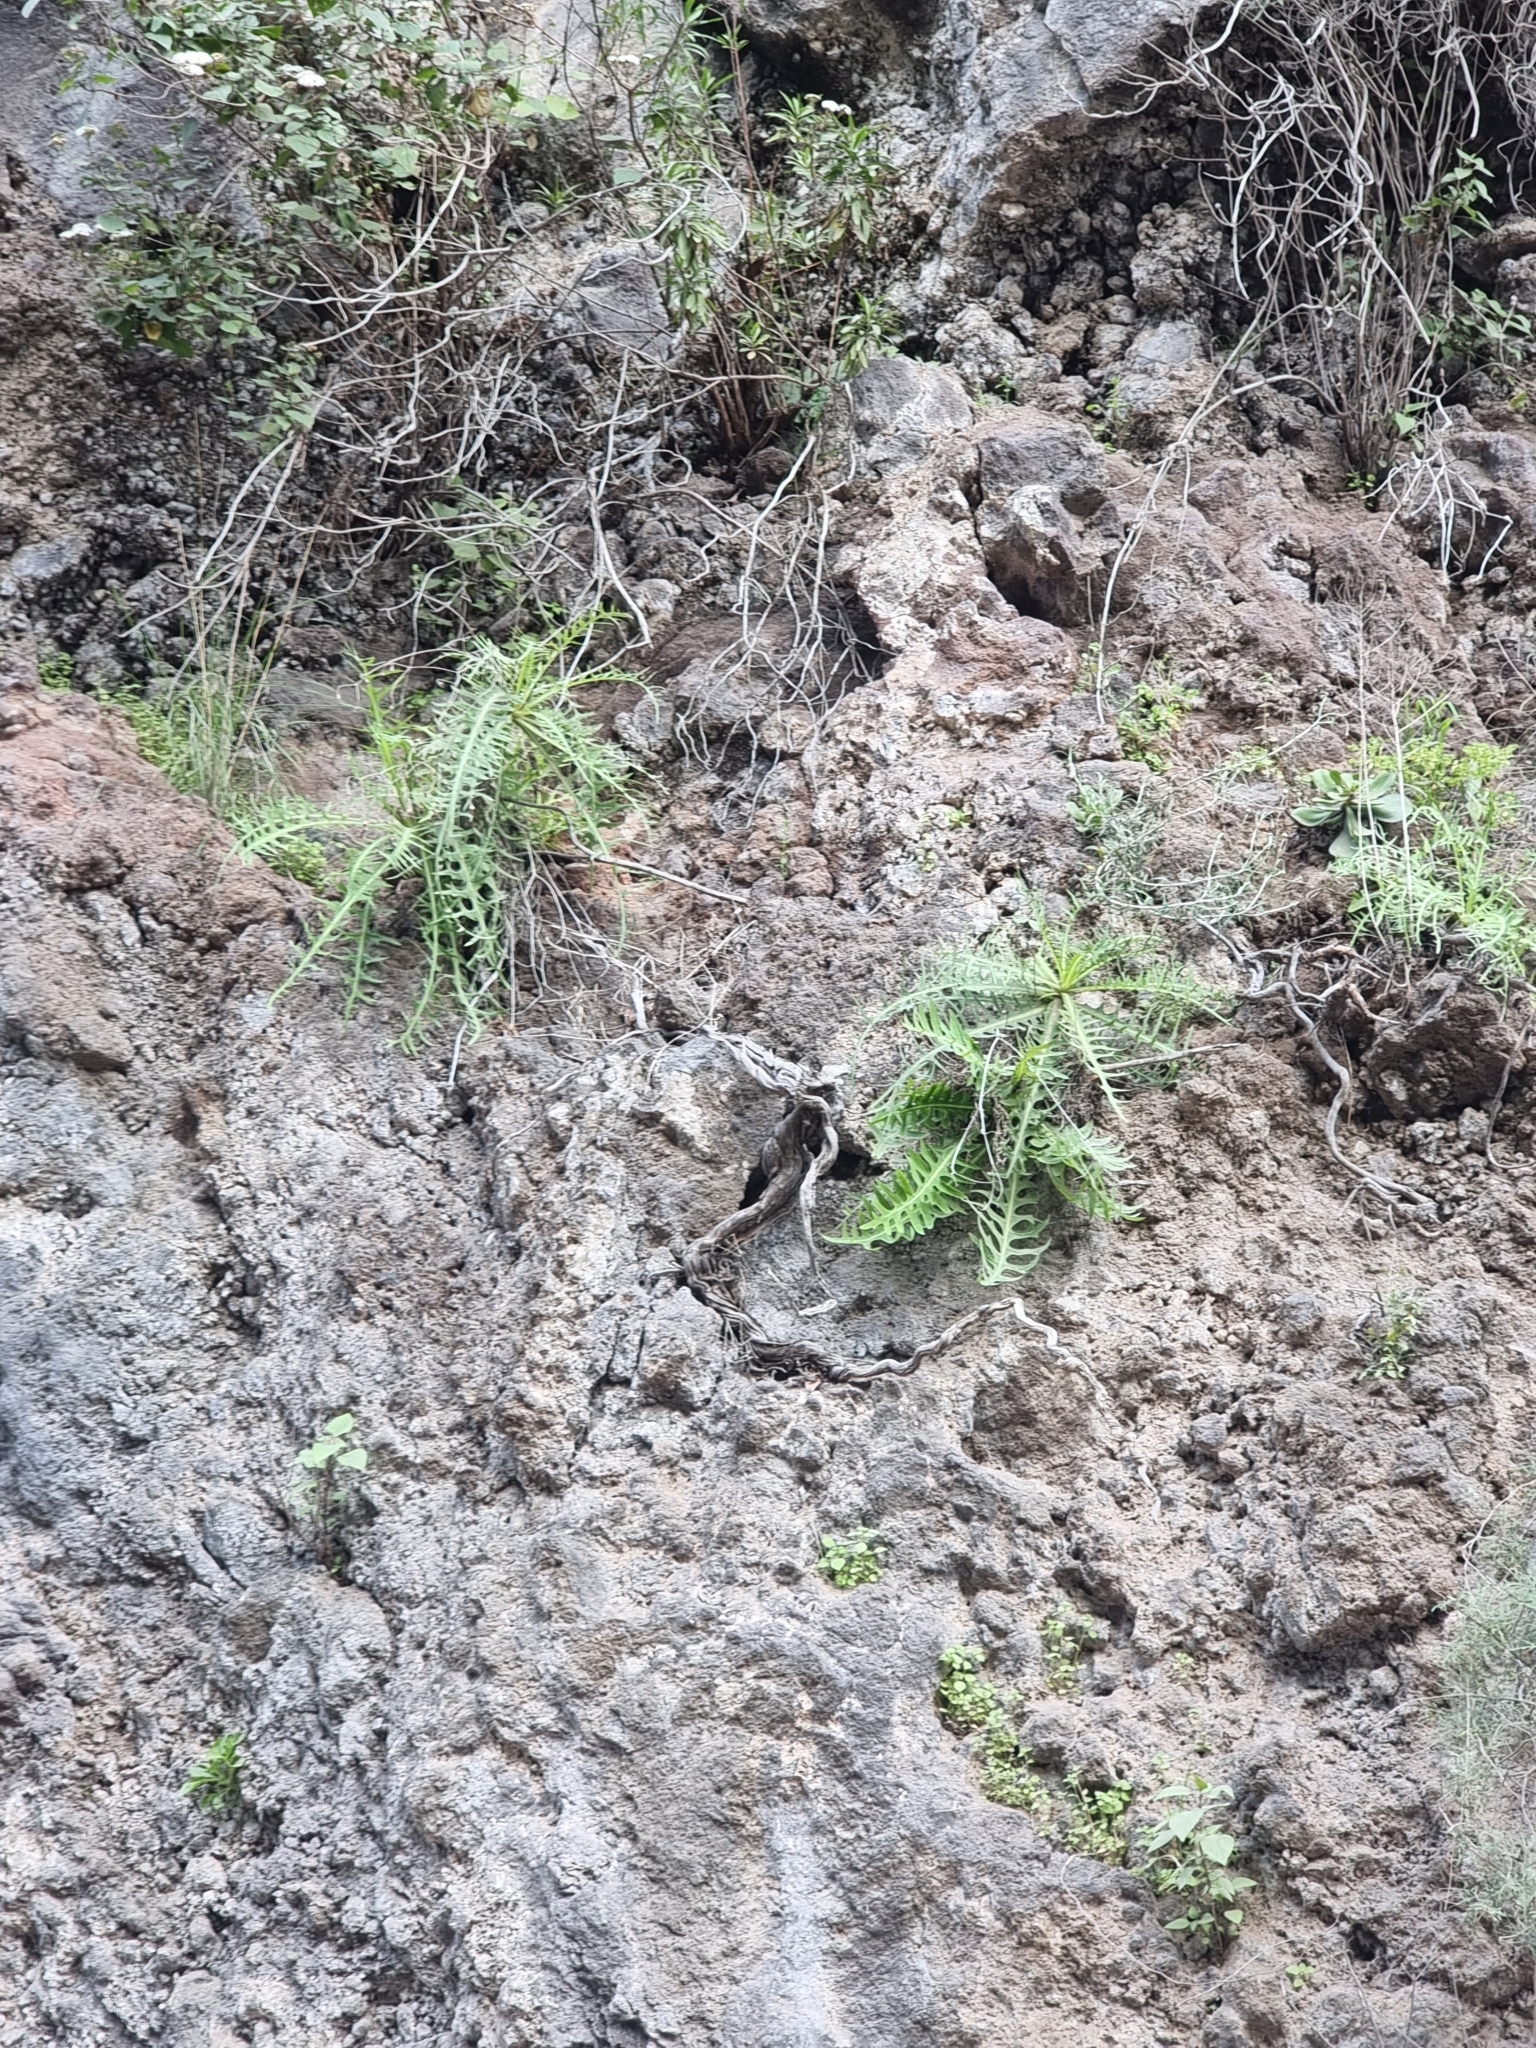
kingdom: Plantae
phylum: Tracheophyta
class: Magnoliopsida
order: Asterales
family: Asteraceae
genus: Sonchus
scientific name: Sonchus ustulatus
